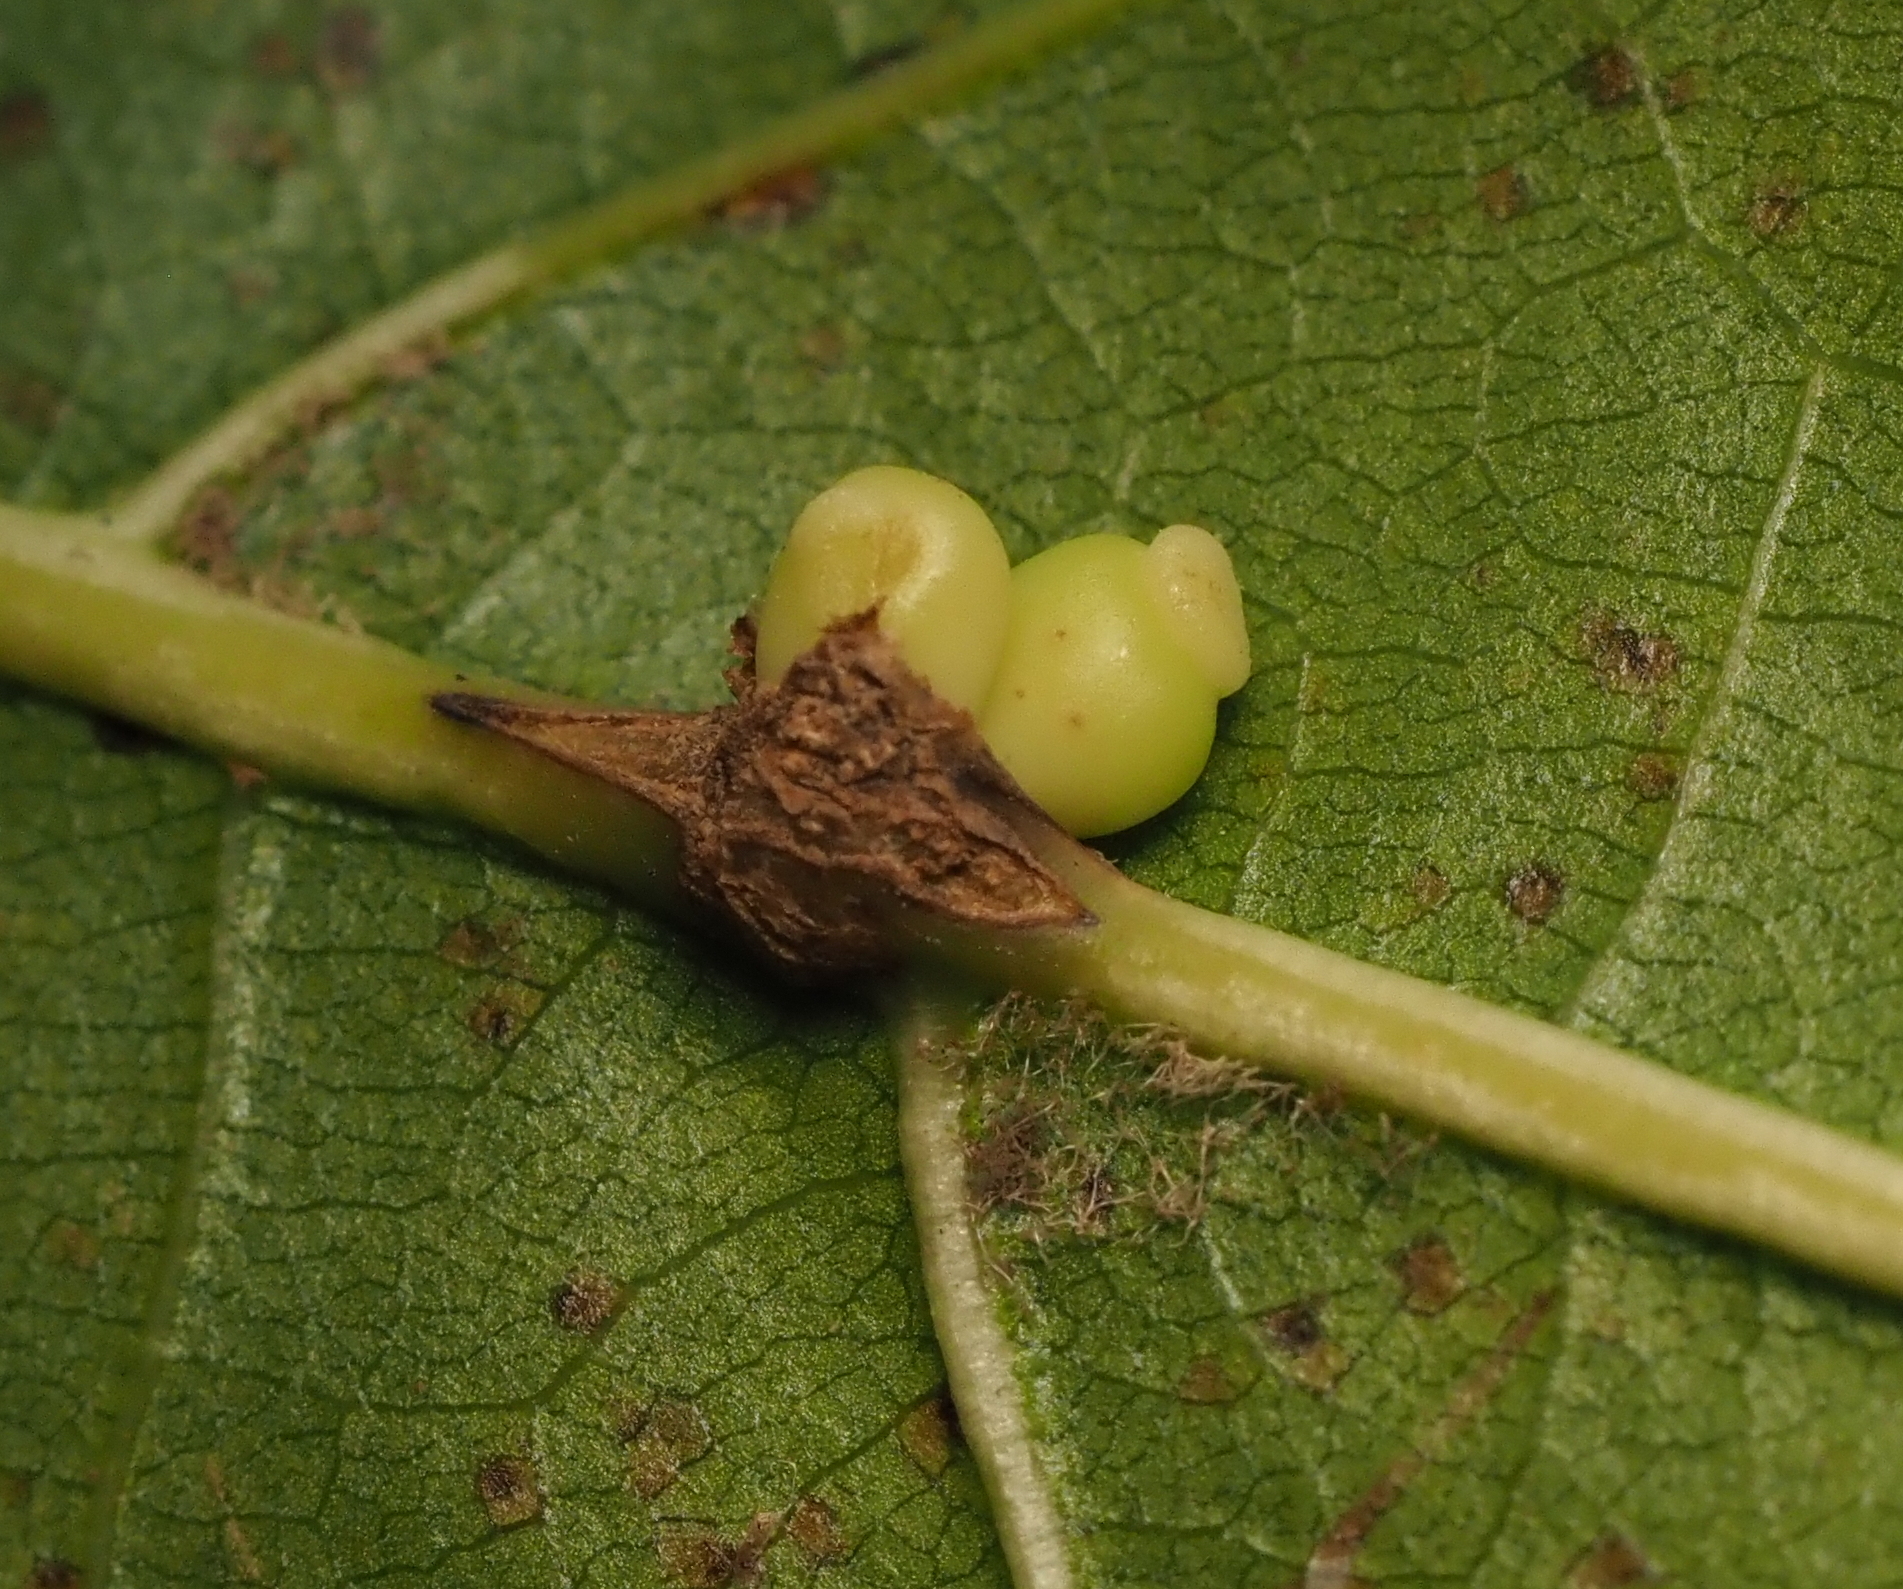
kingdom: Animalia
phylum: Arthropoda
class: Insecta
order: Hymenoptera
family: Cynipidae
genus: Kokkocynips
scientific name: Kokkocynips decidua
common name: Oak wheat gall
